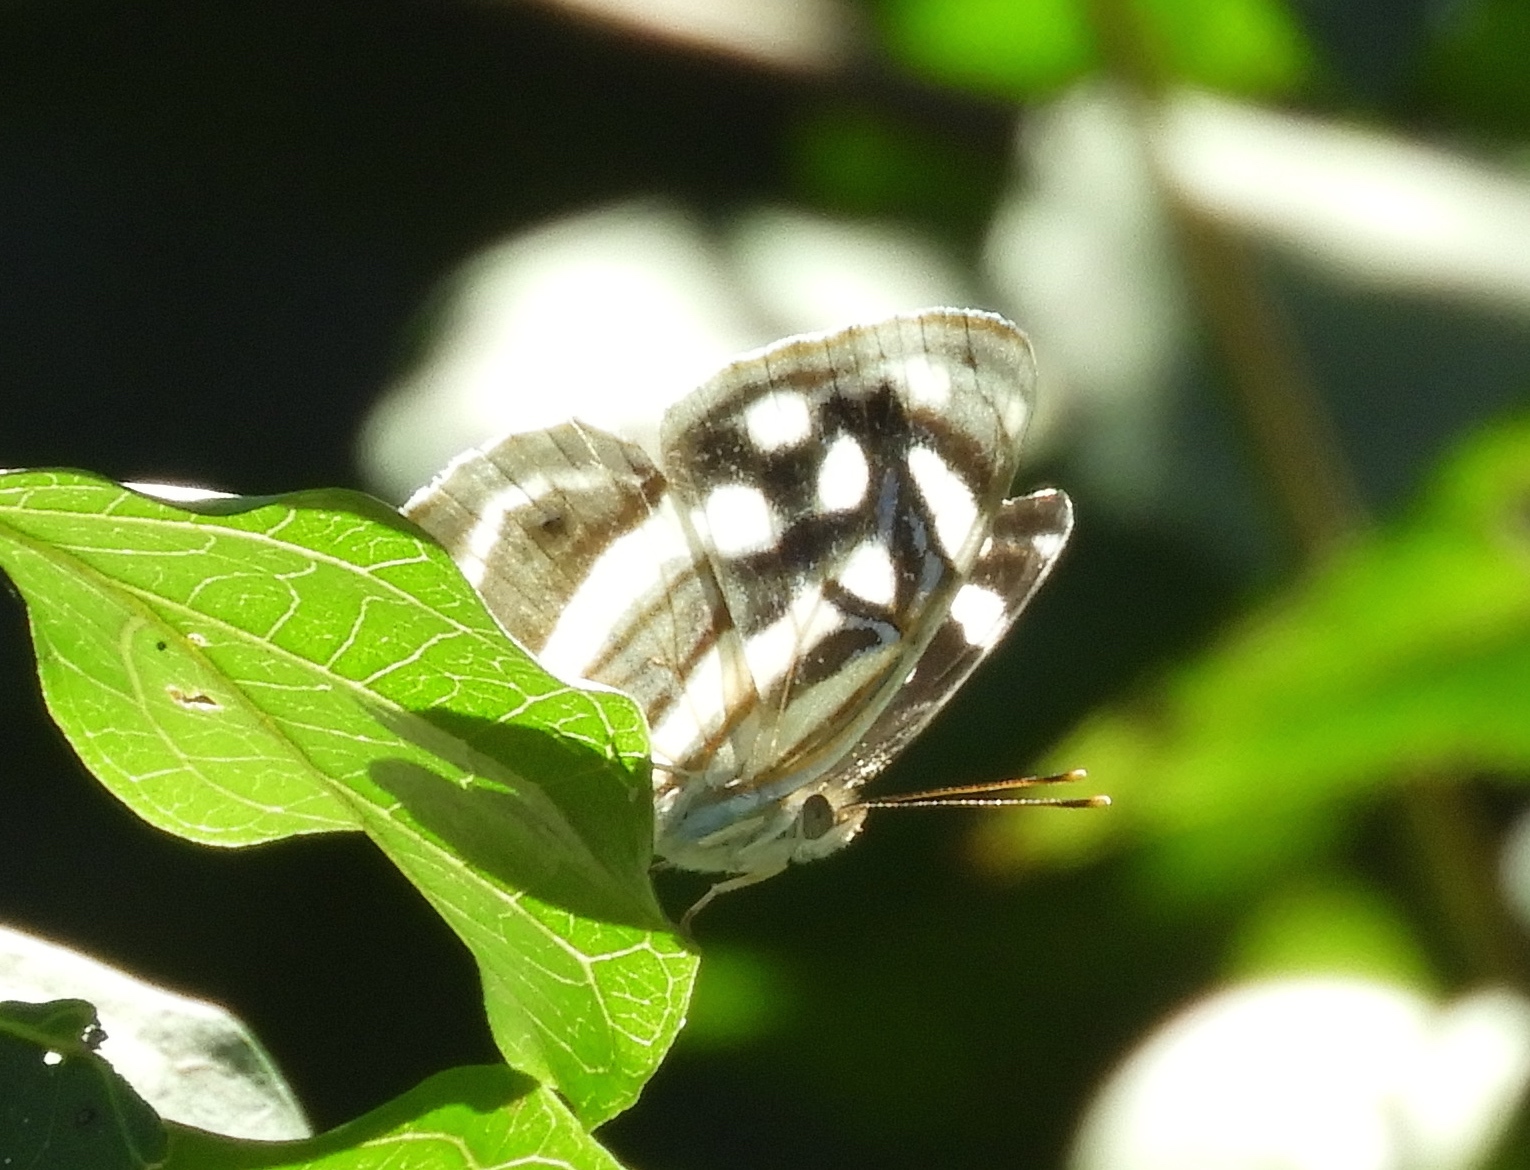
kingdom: Animalia
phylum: Arthropoda
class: Insecta
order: Lepidoptera
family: Nymphalidae
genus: Dynamine
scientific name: Dynamine mylitta
